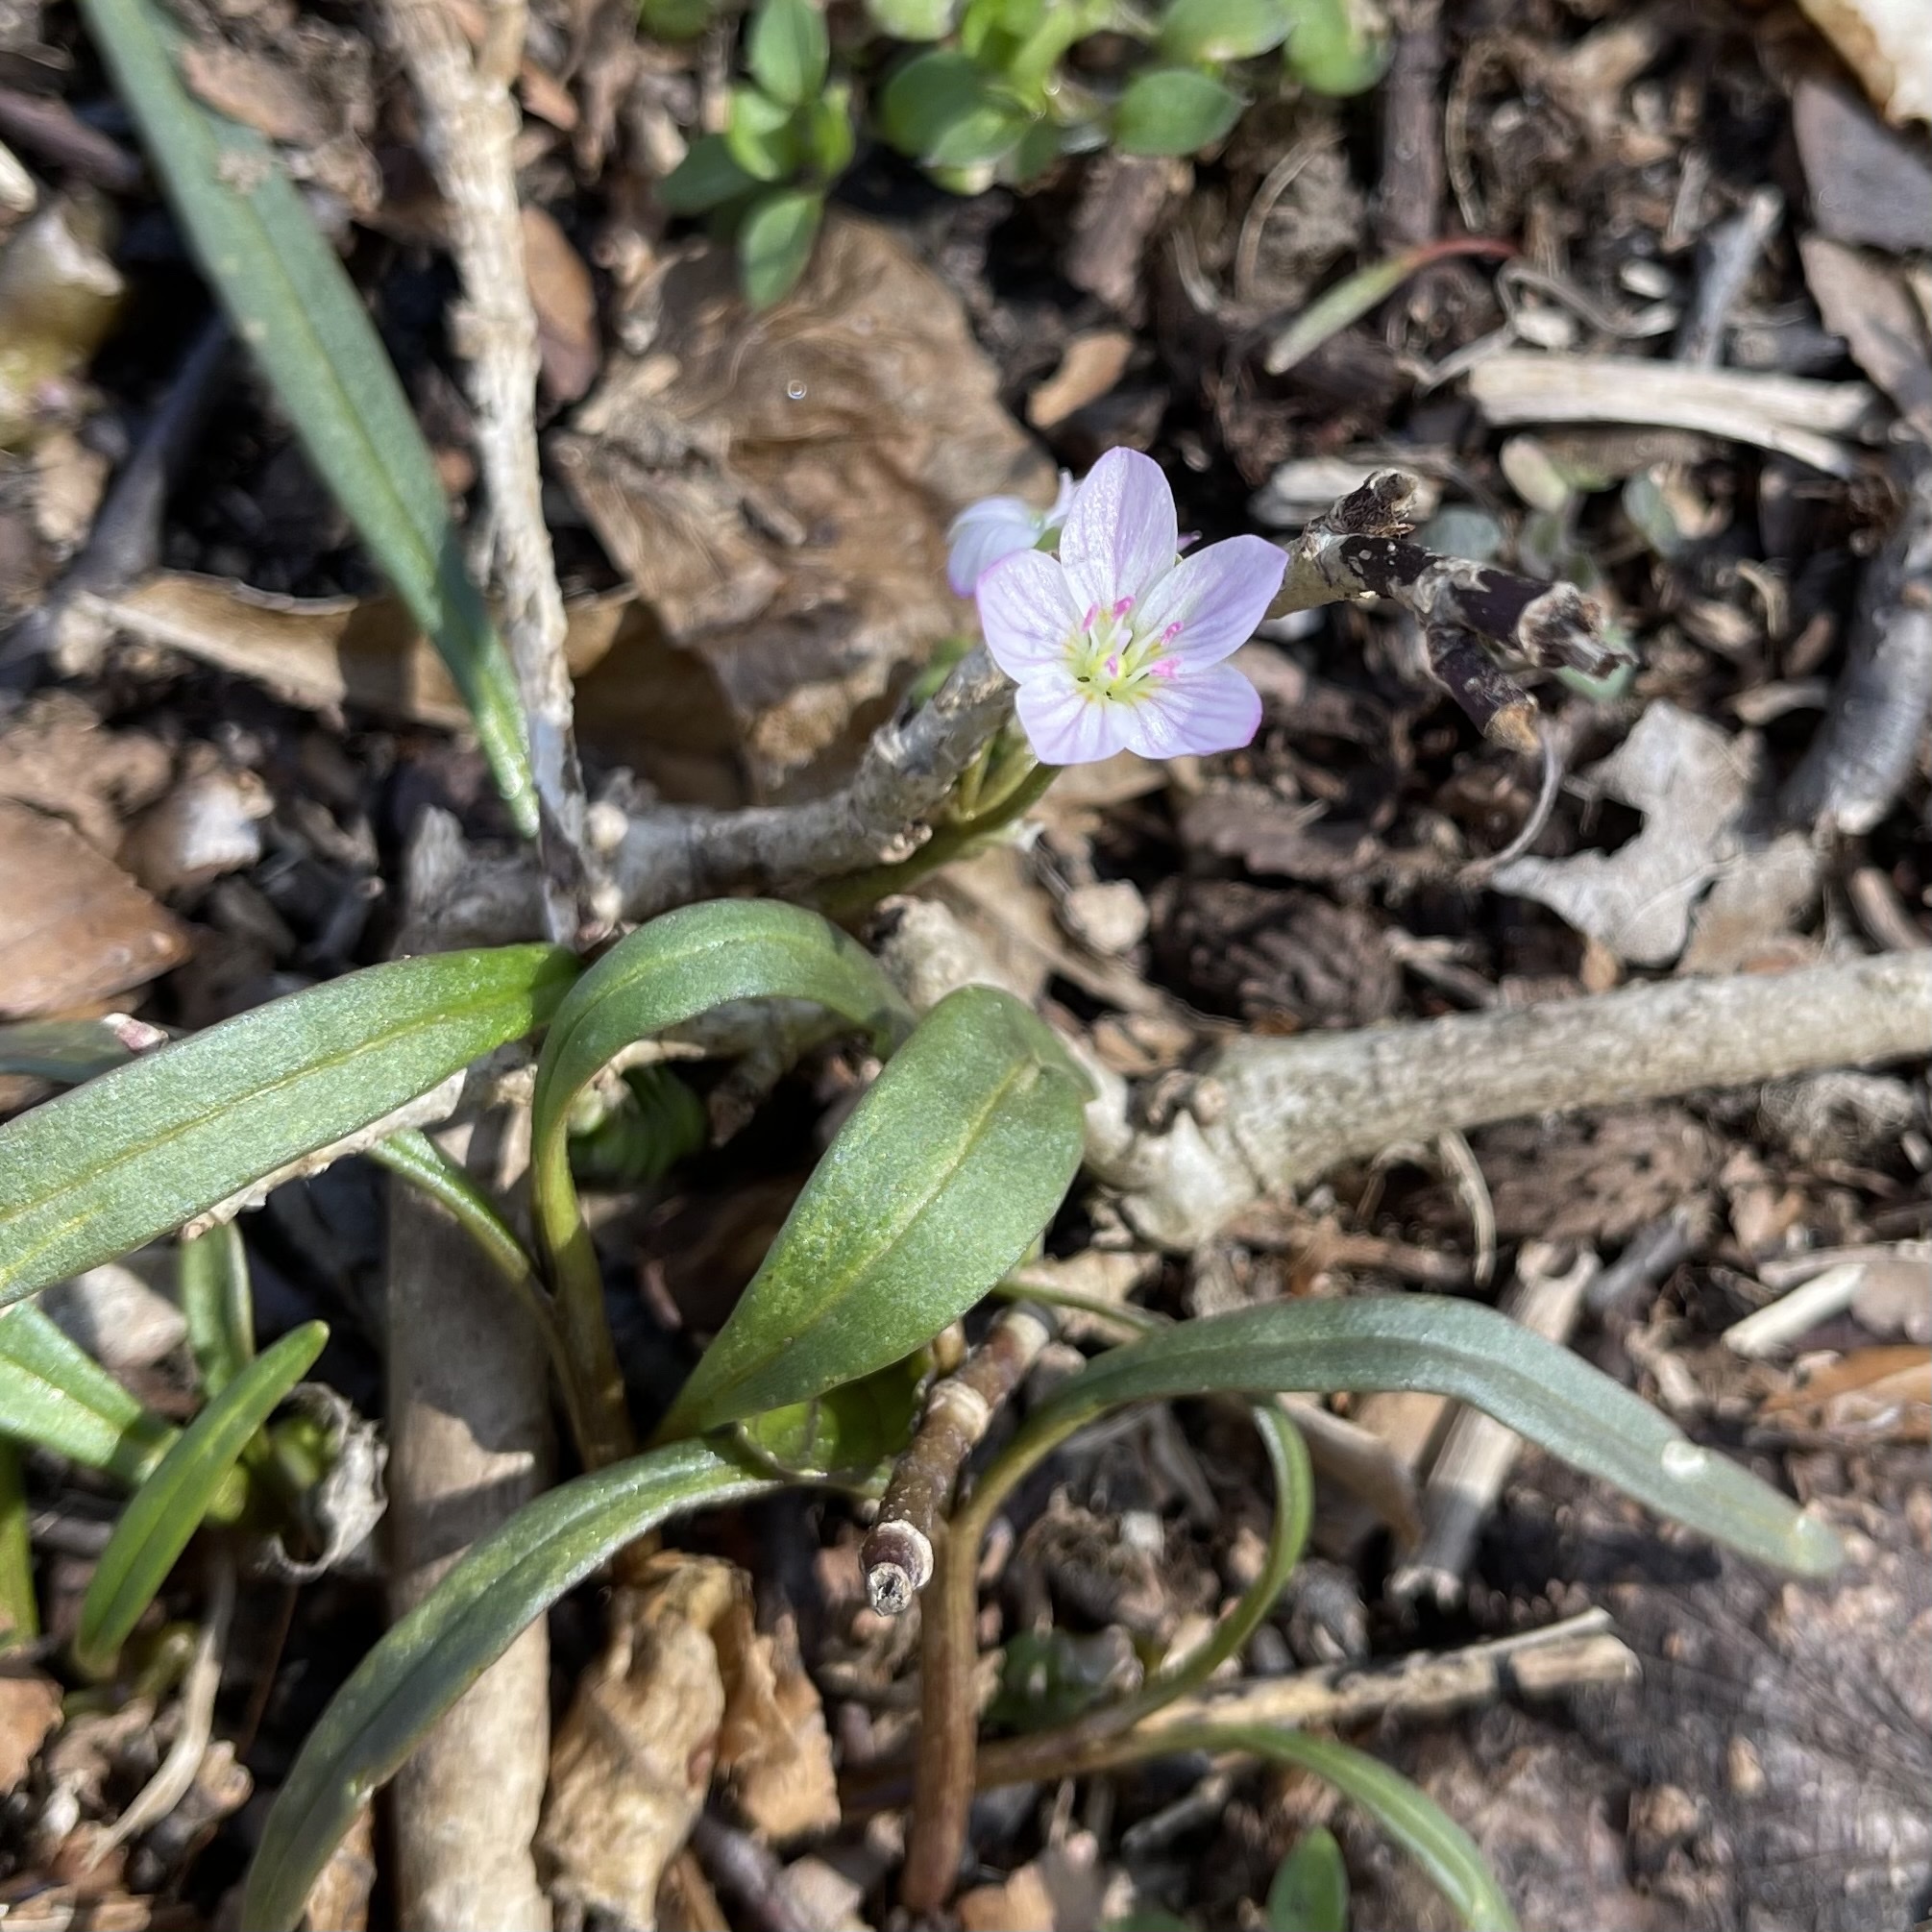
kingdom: Plantae
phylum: Tracheophyta
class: Magnoliopsida
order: Caryophyllales
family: Montiaceae
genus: Claytonia
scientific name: Claytonia virginica
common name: Virginia springbeauty
